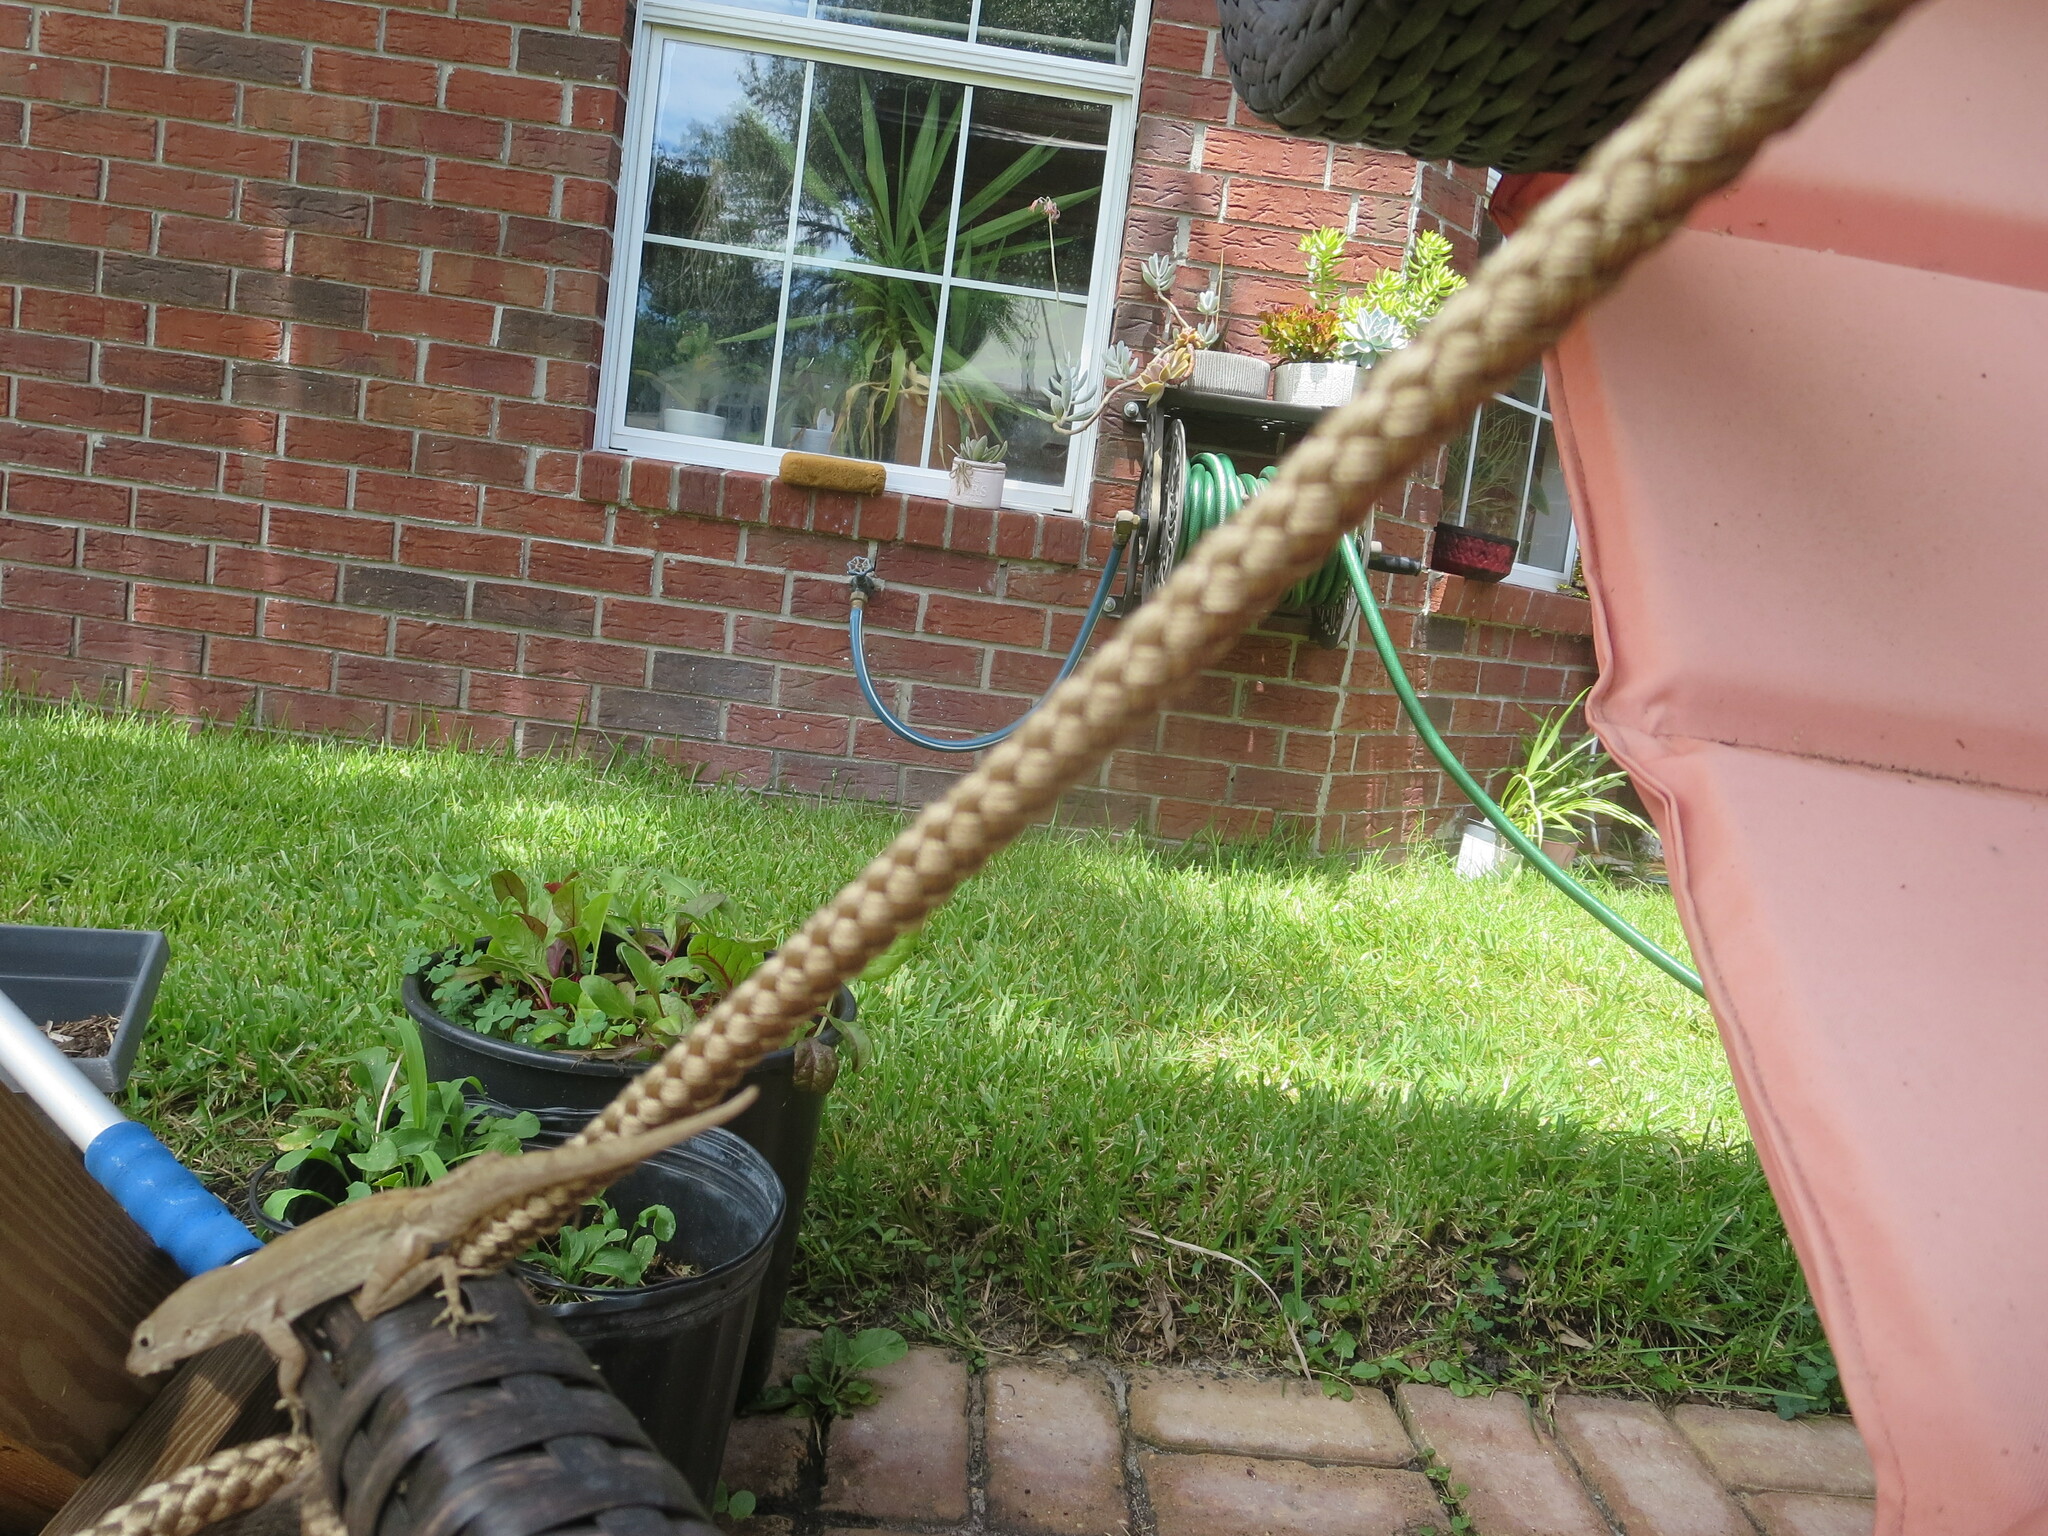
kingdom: Animalia
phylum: Chordata
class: Squamata
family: Dactyloidae
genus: Anolis
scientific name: Anolis sagrei
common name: Brown anole
